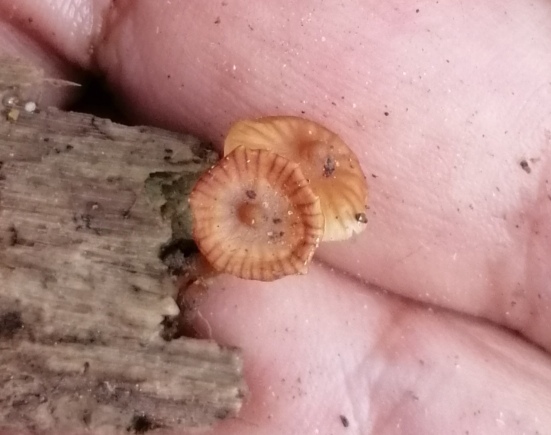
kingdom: Fungi
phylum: Basidiomycota
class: Agaricomycetes
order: Agaricales
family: Hymenogastraceae
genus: Galerina
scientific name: Galerina velutipes
